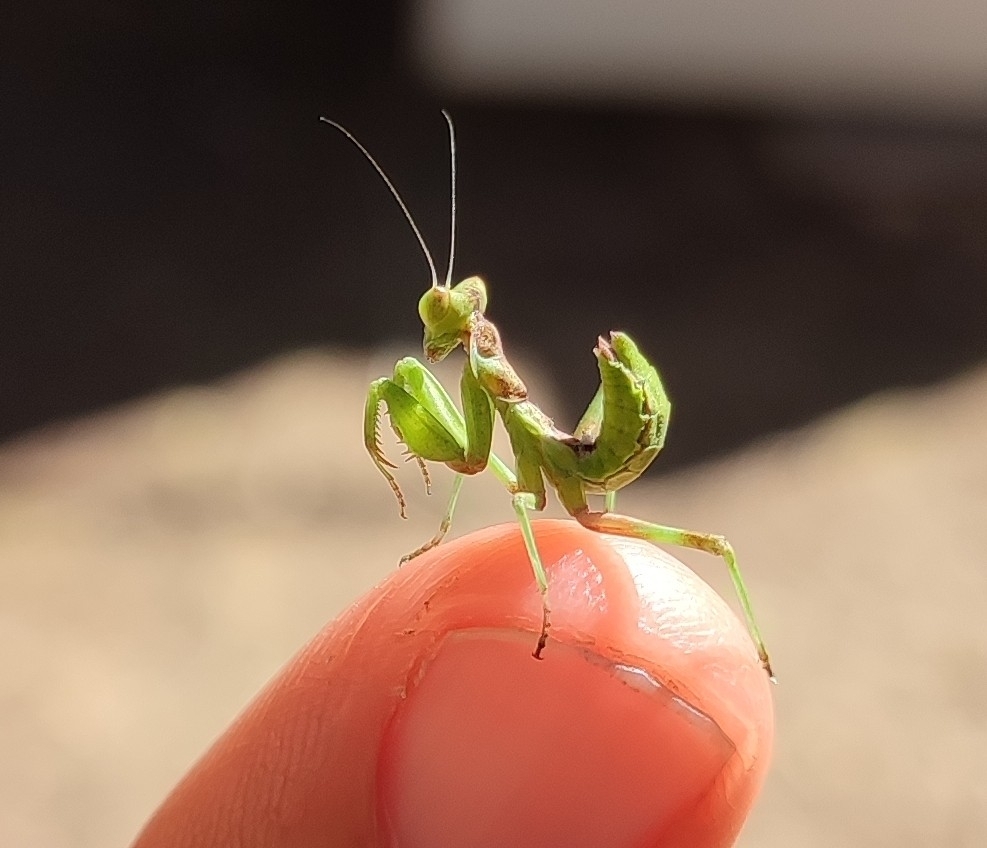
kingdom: Animalia
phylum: Arthropoda
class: Insecta
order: Mantodea
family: Amelidae
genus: Ameles
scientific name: Ameles spallanzania
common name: European dwarf mantis
